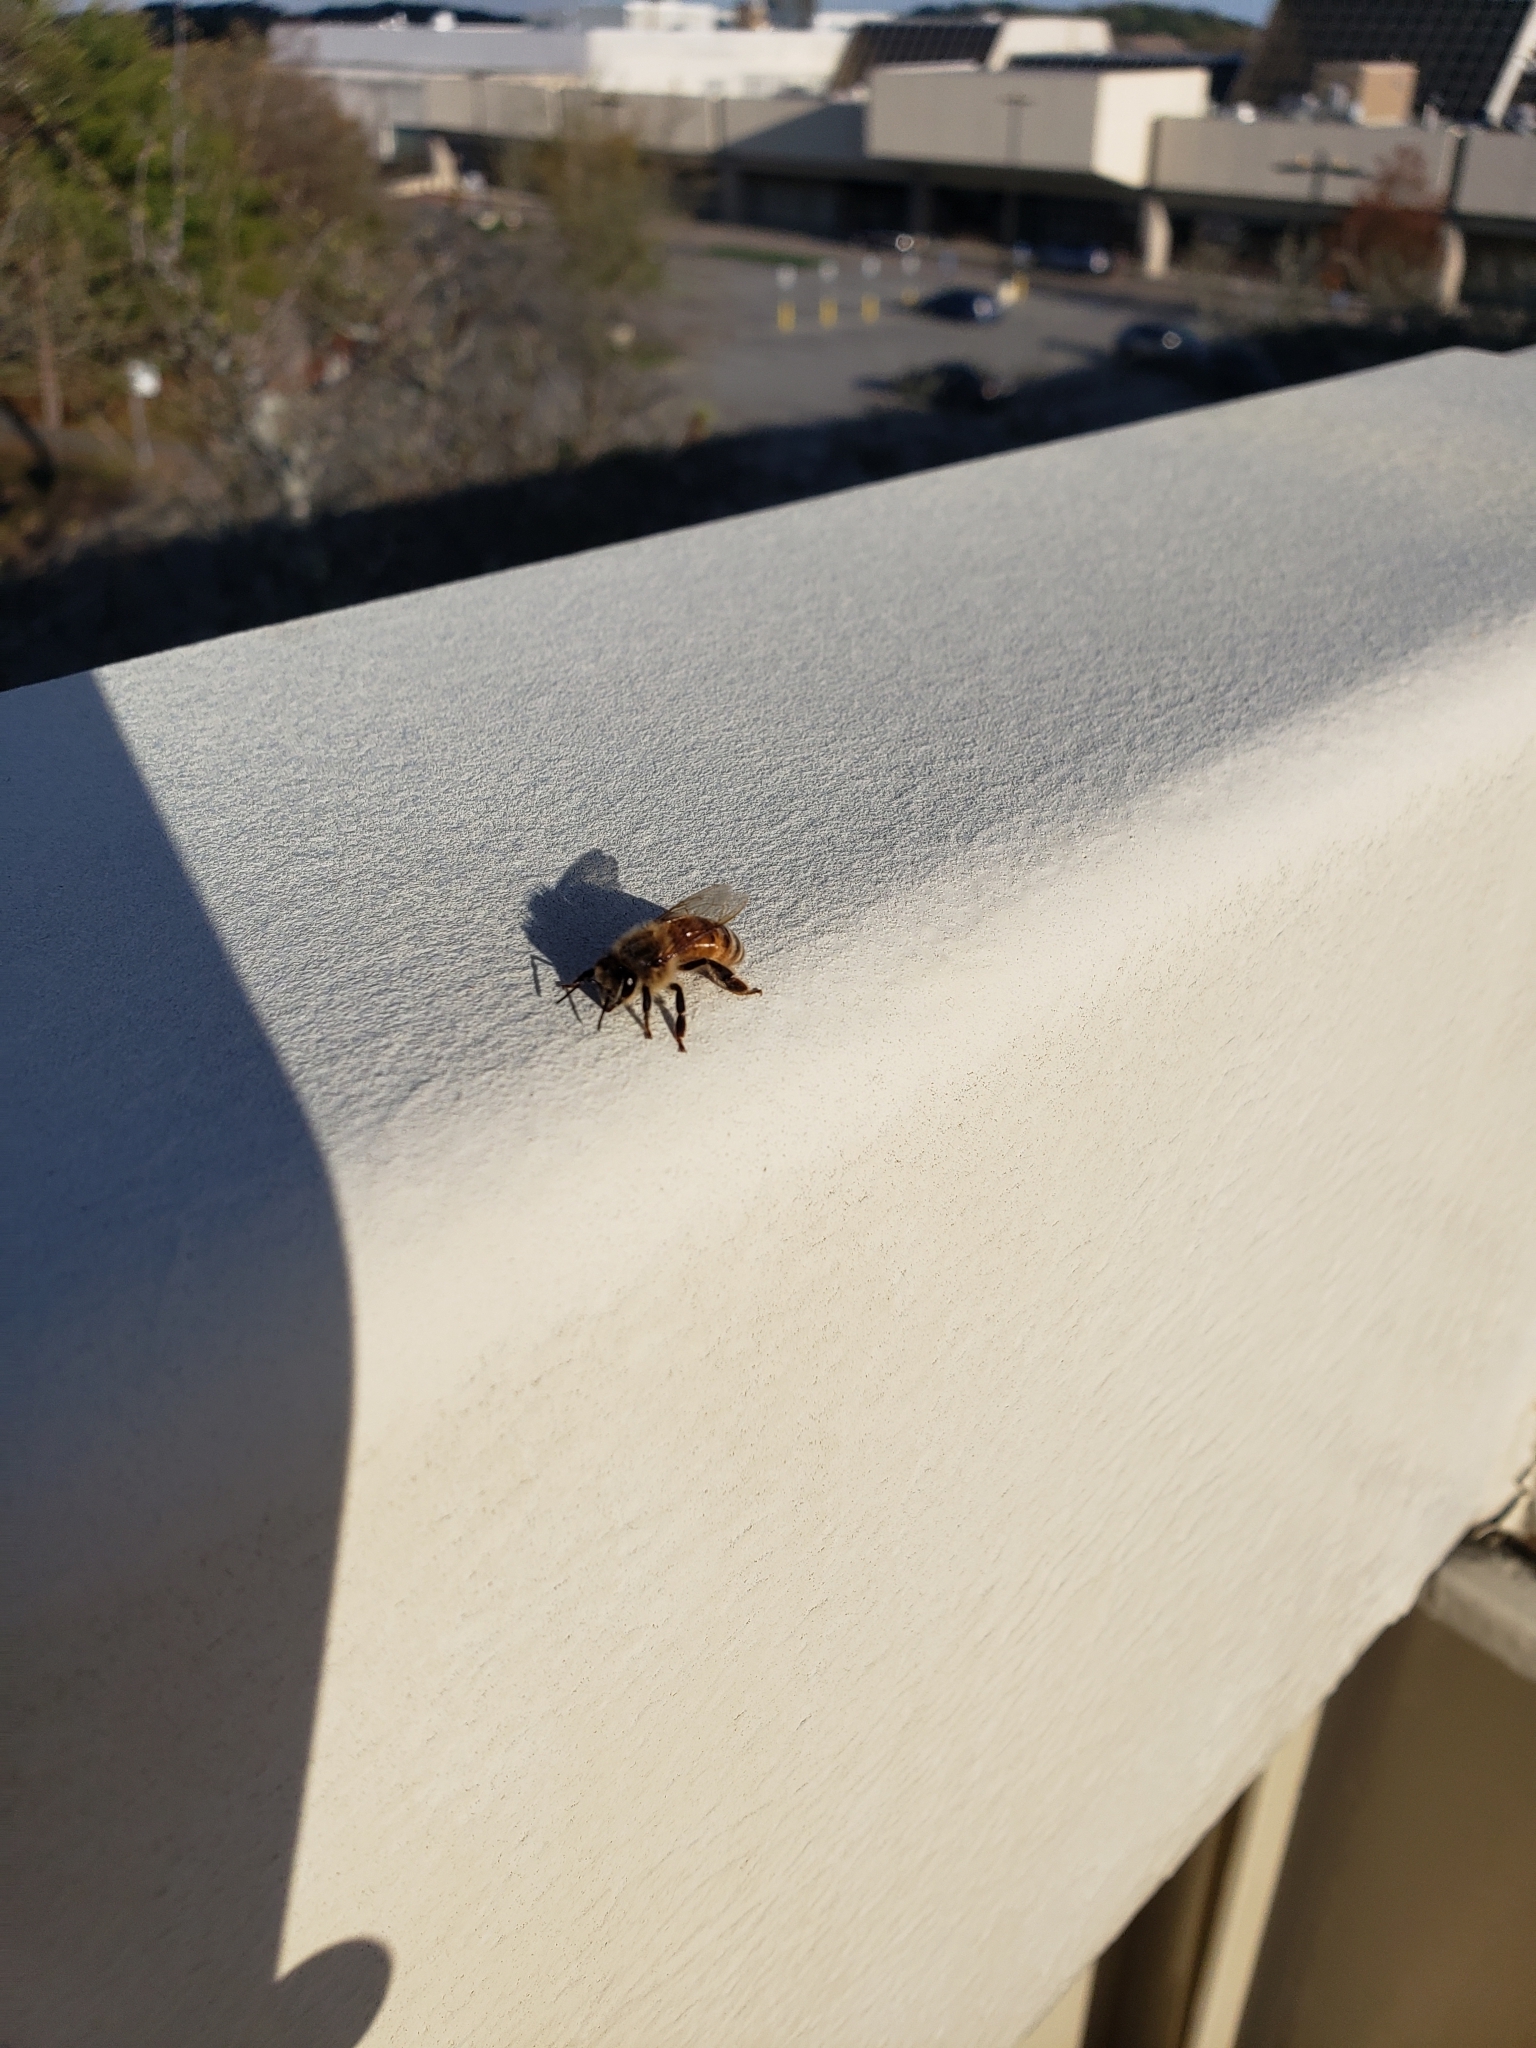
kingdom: Animalia
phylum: Arthropoda
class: Insecta
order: Hymenoptera
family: Apidae
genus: Apis
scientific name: Apis mellifera
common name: Honey bee
